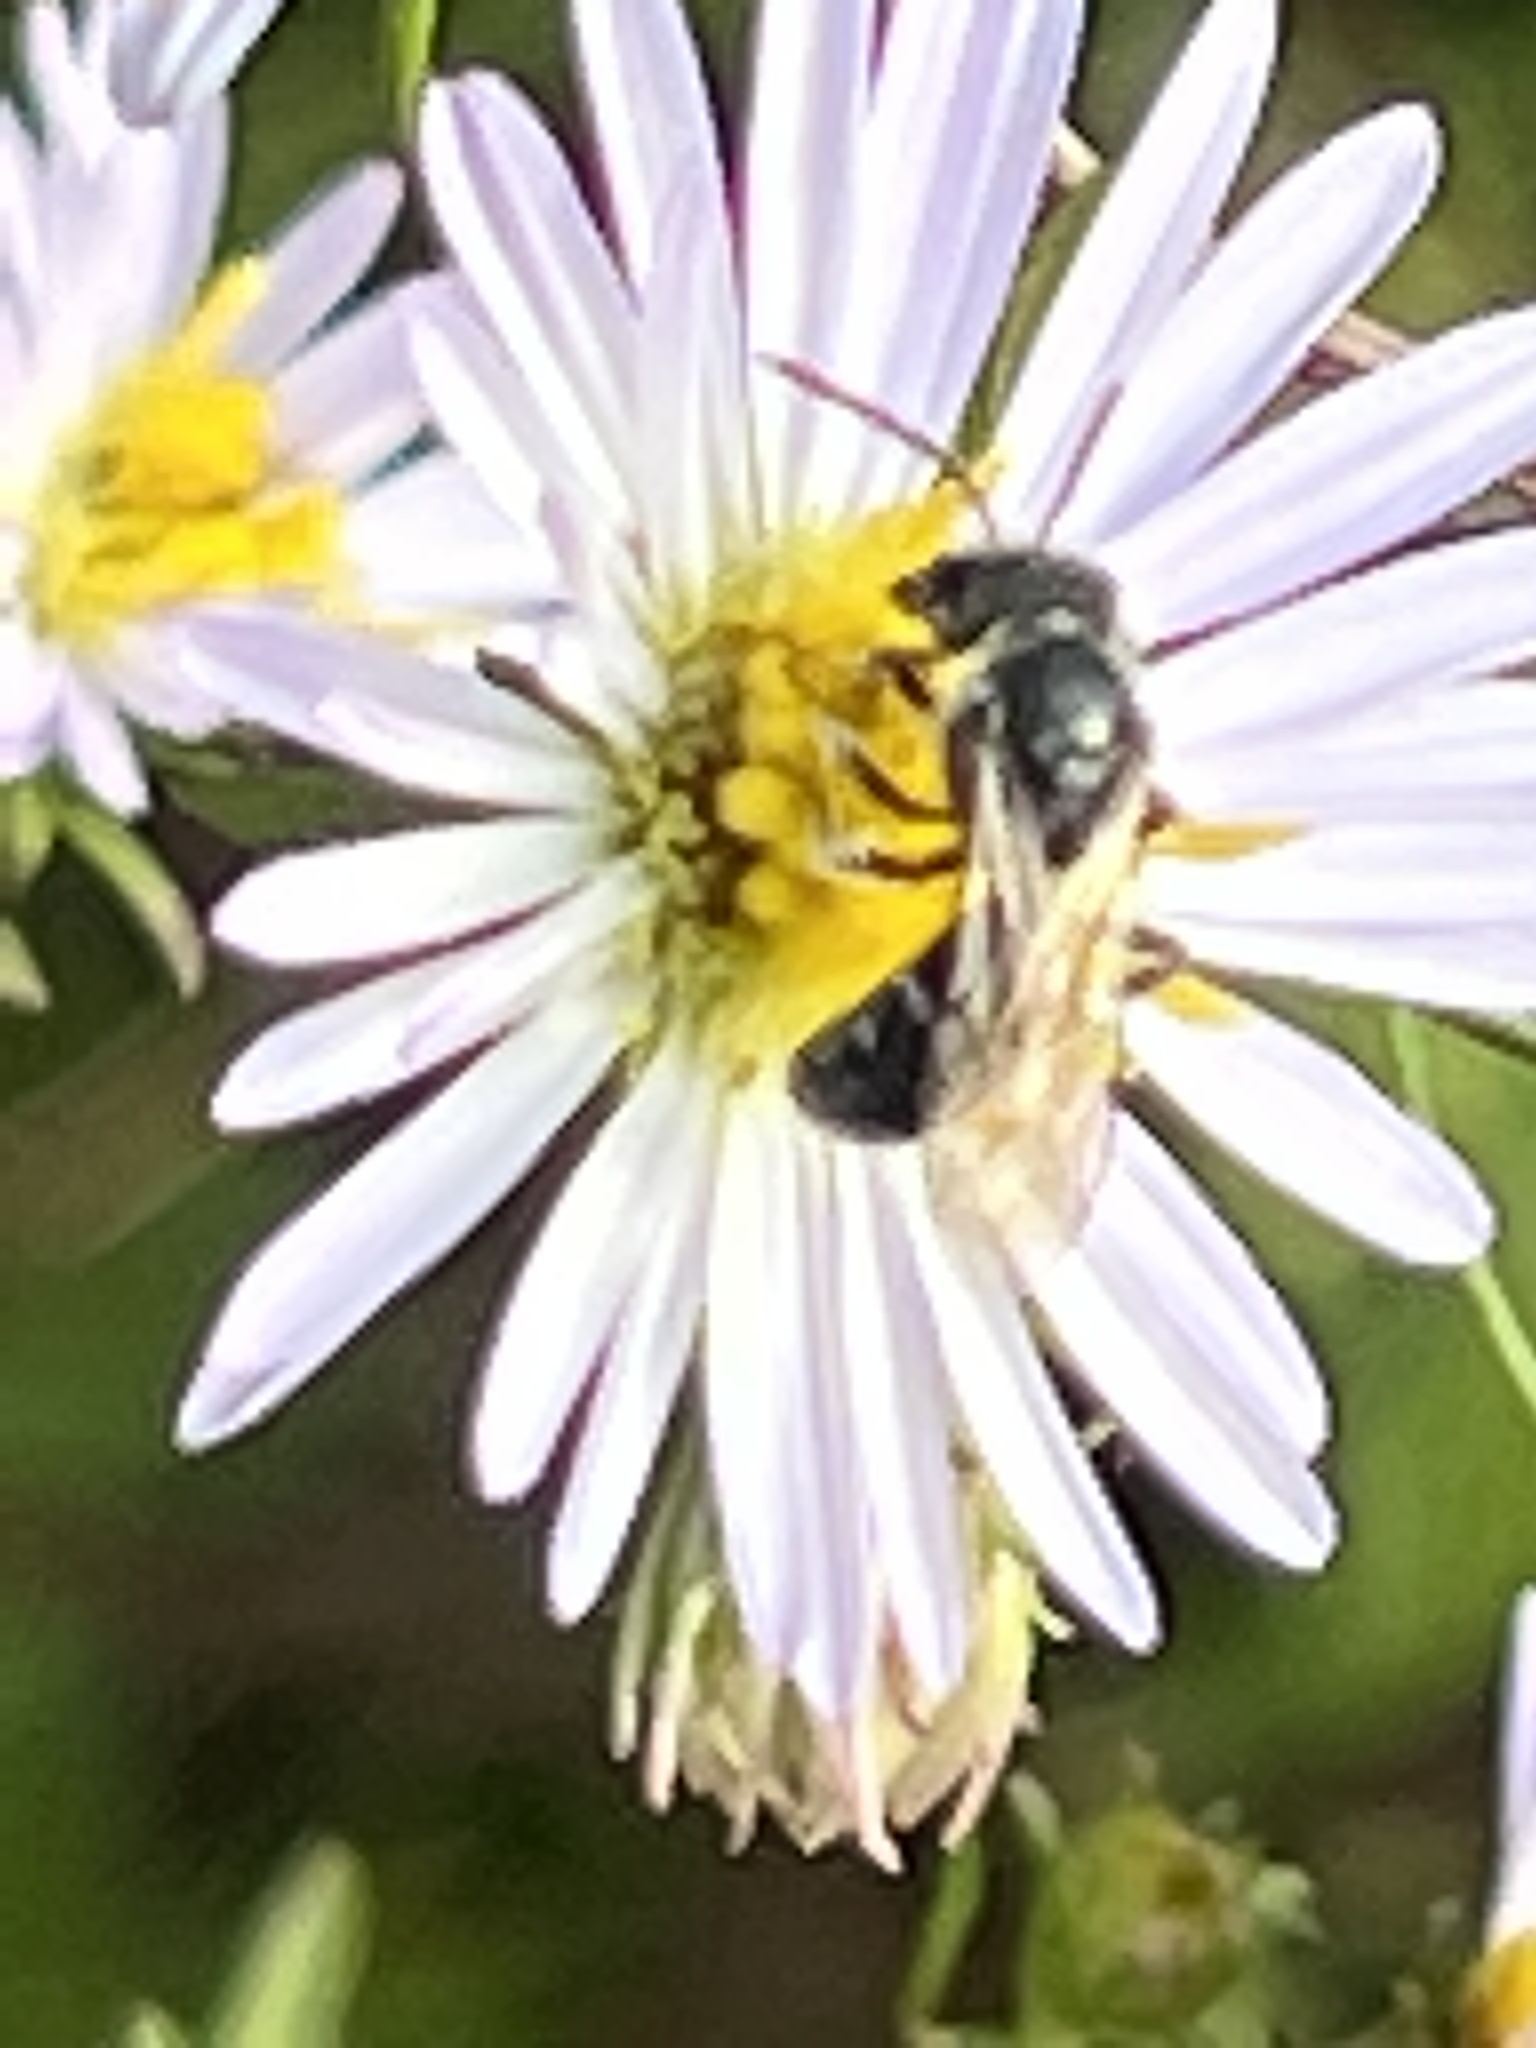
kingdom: Animalia
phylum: Arthropoda
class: Insecta
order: Hymenoptera
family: Halictidae
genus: Lasioglossum
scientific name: Lasioglossum
